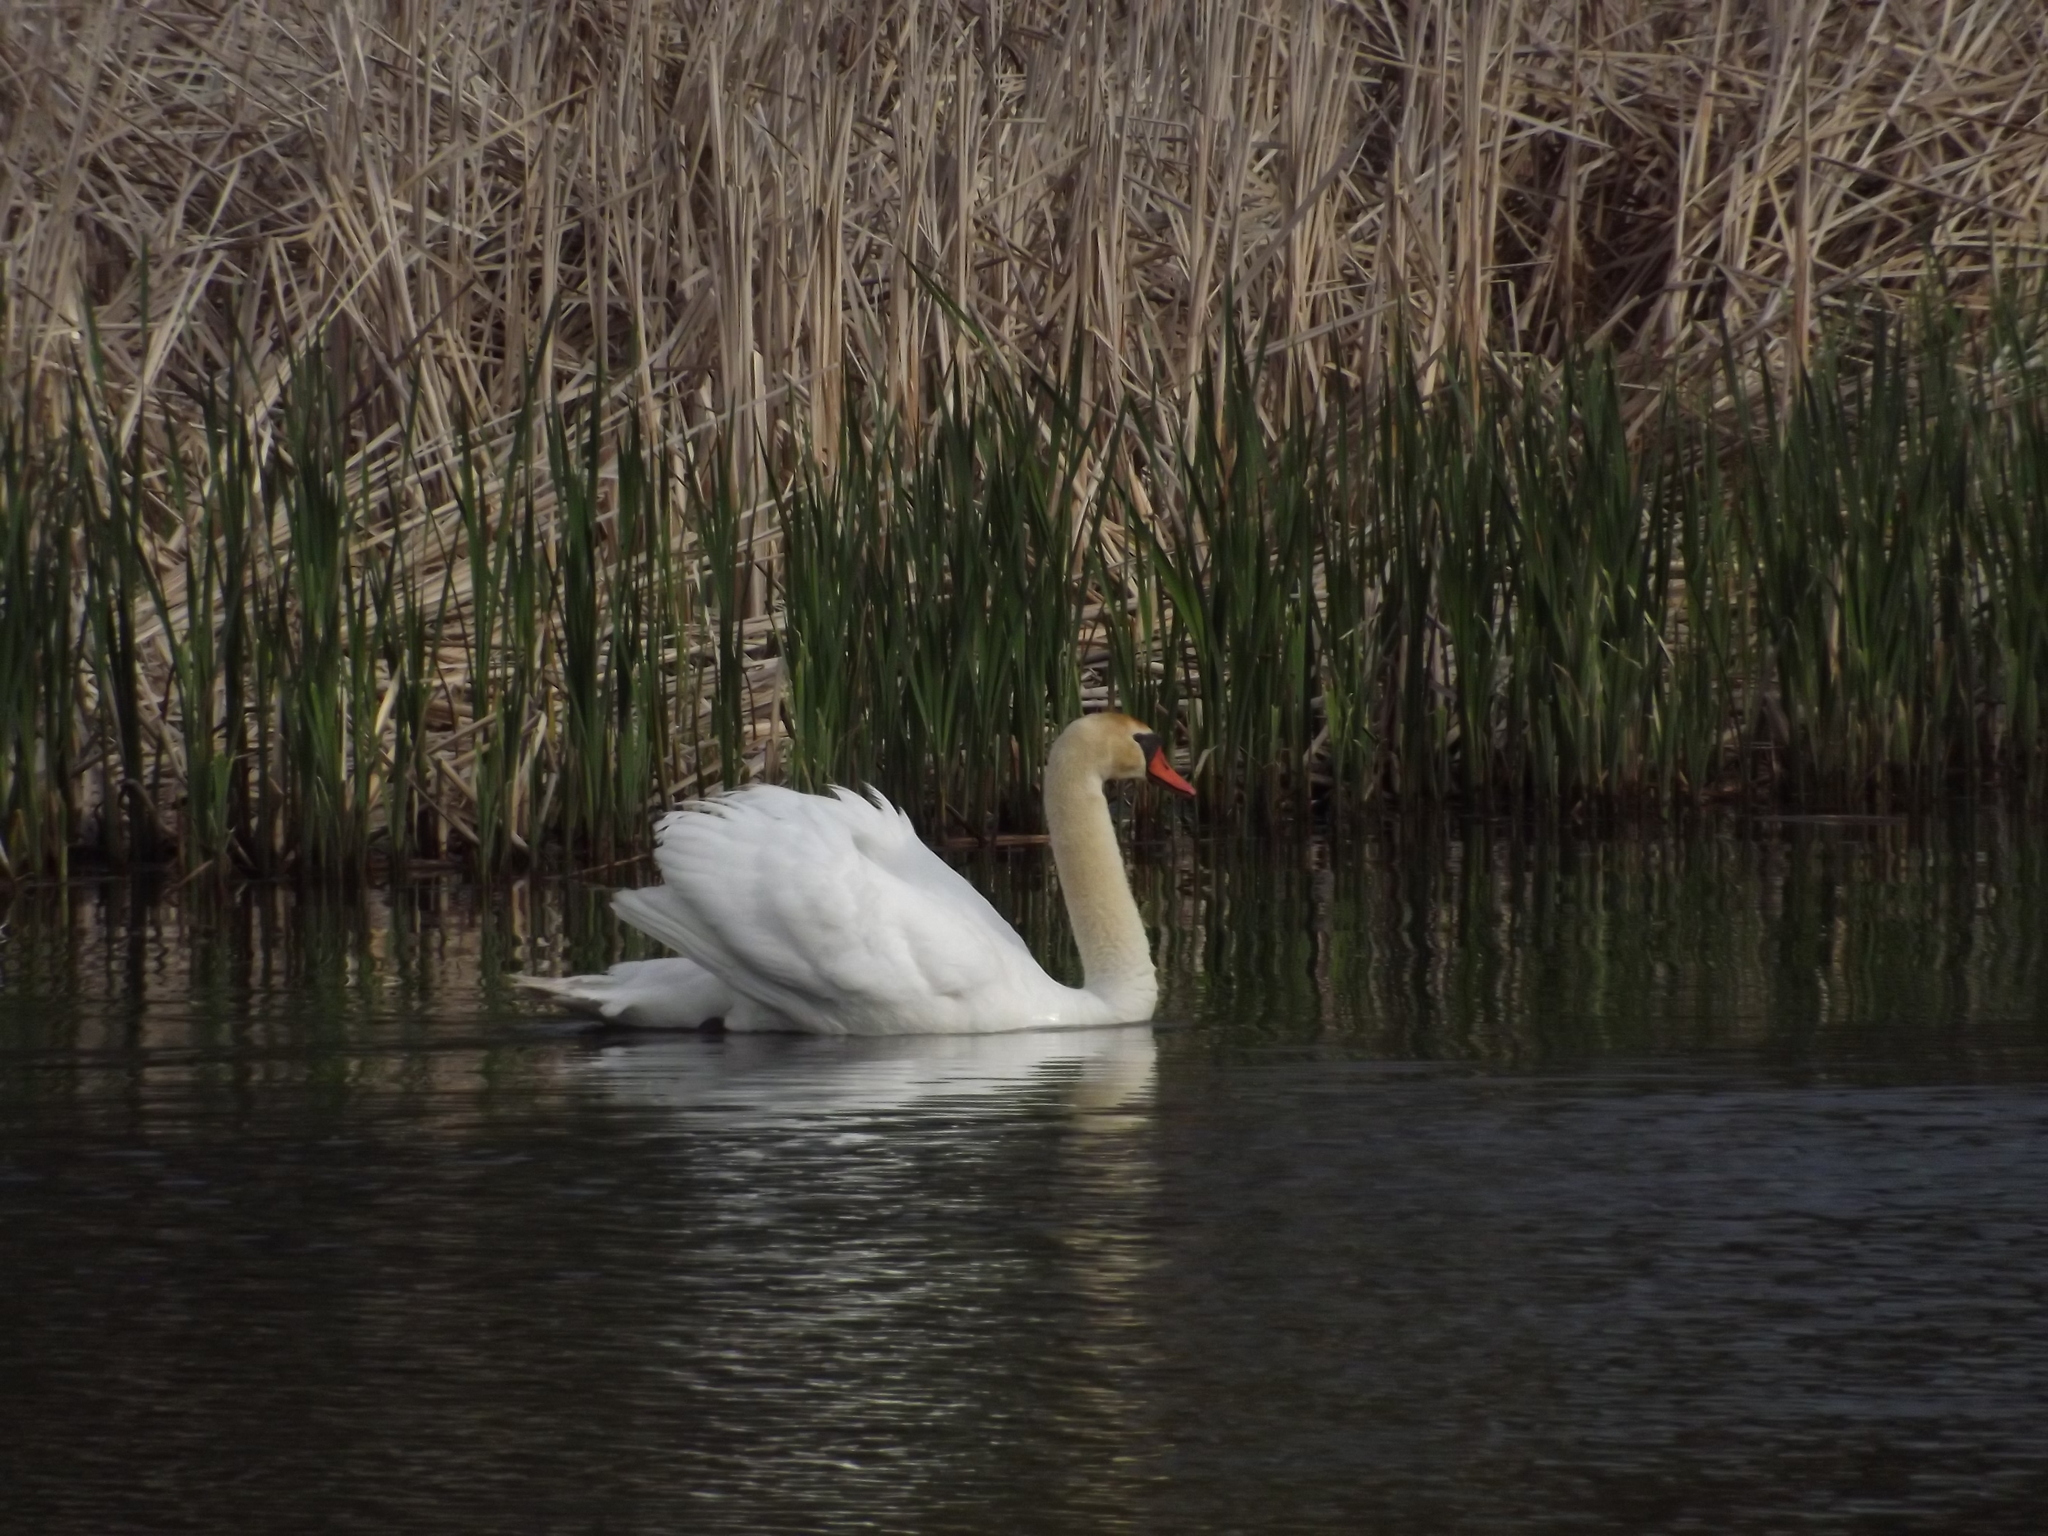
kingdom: Animalia
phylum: Chordata
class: Aves
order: Anseriformes
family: Anatidae
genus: Cygnus
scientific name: Cygnus olor
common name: Mute swan
